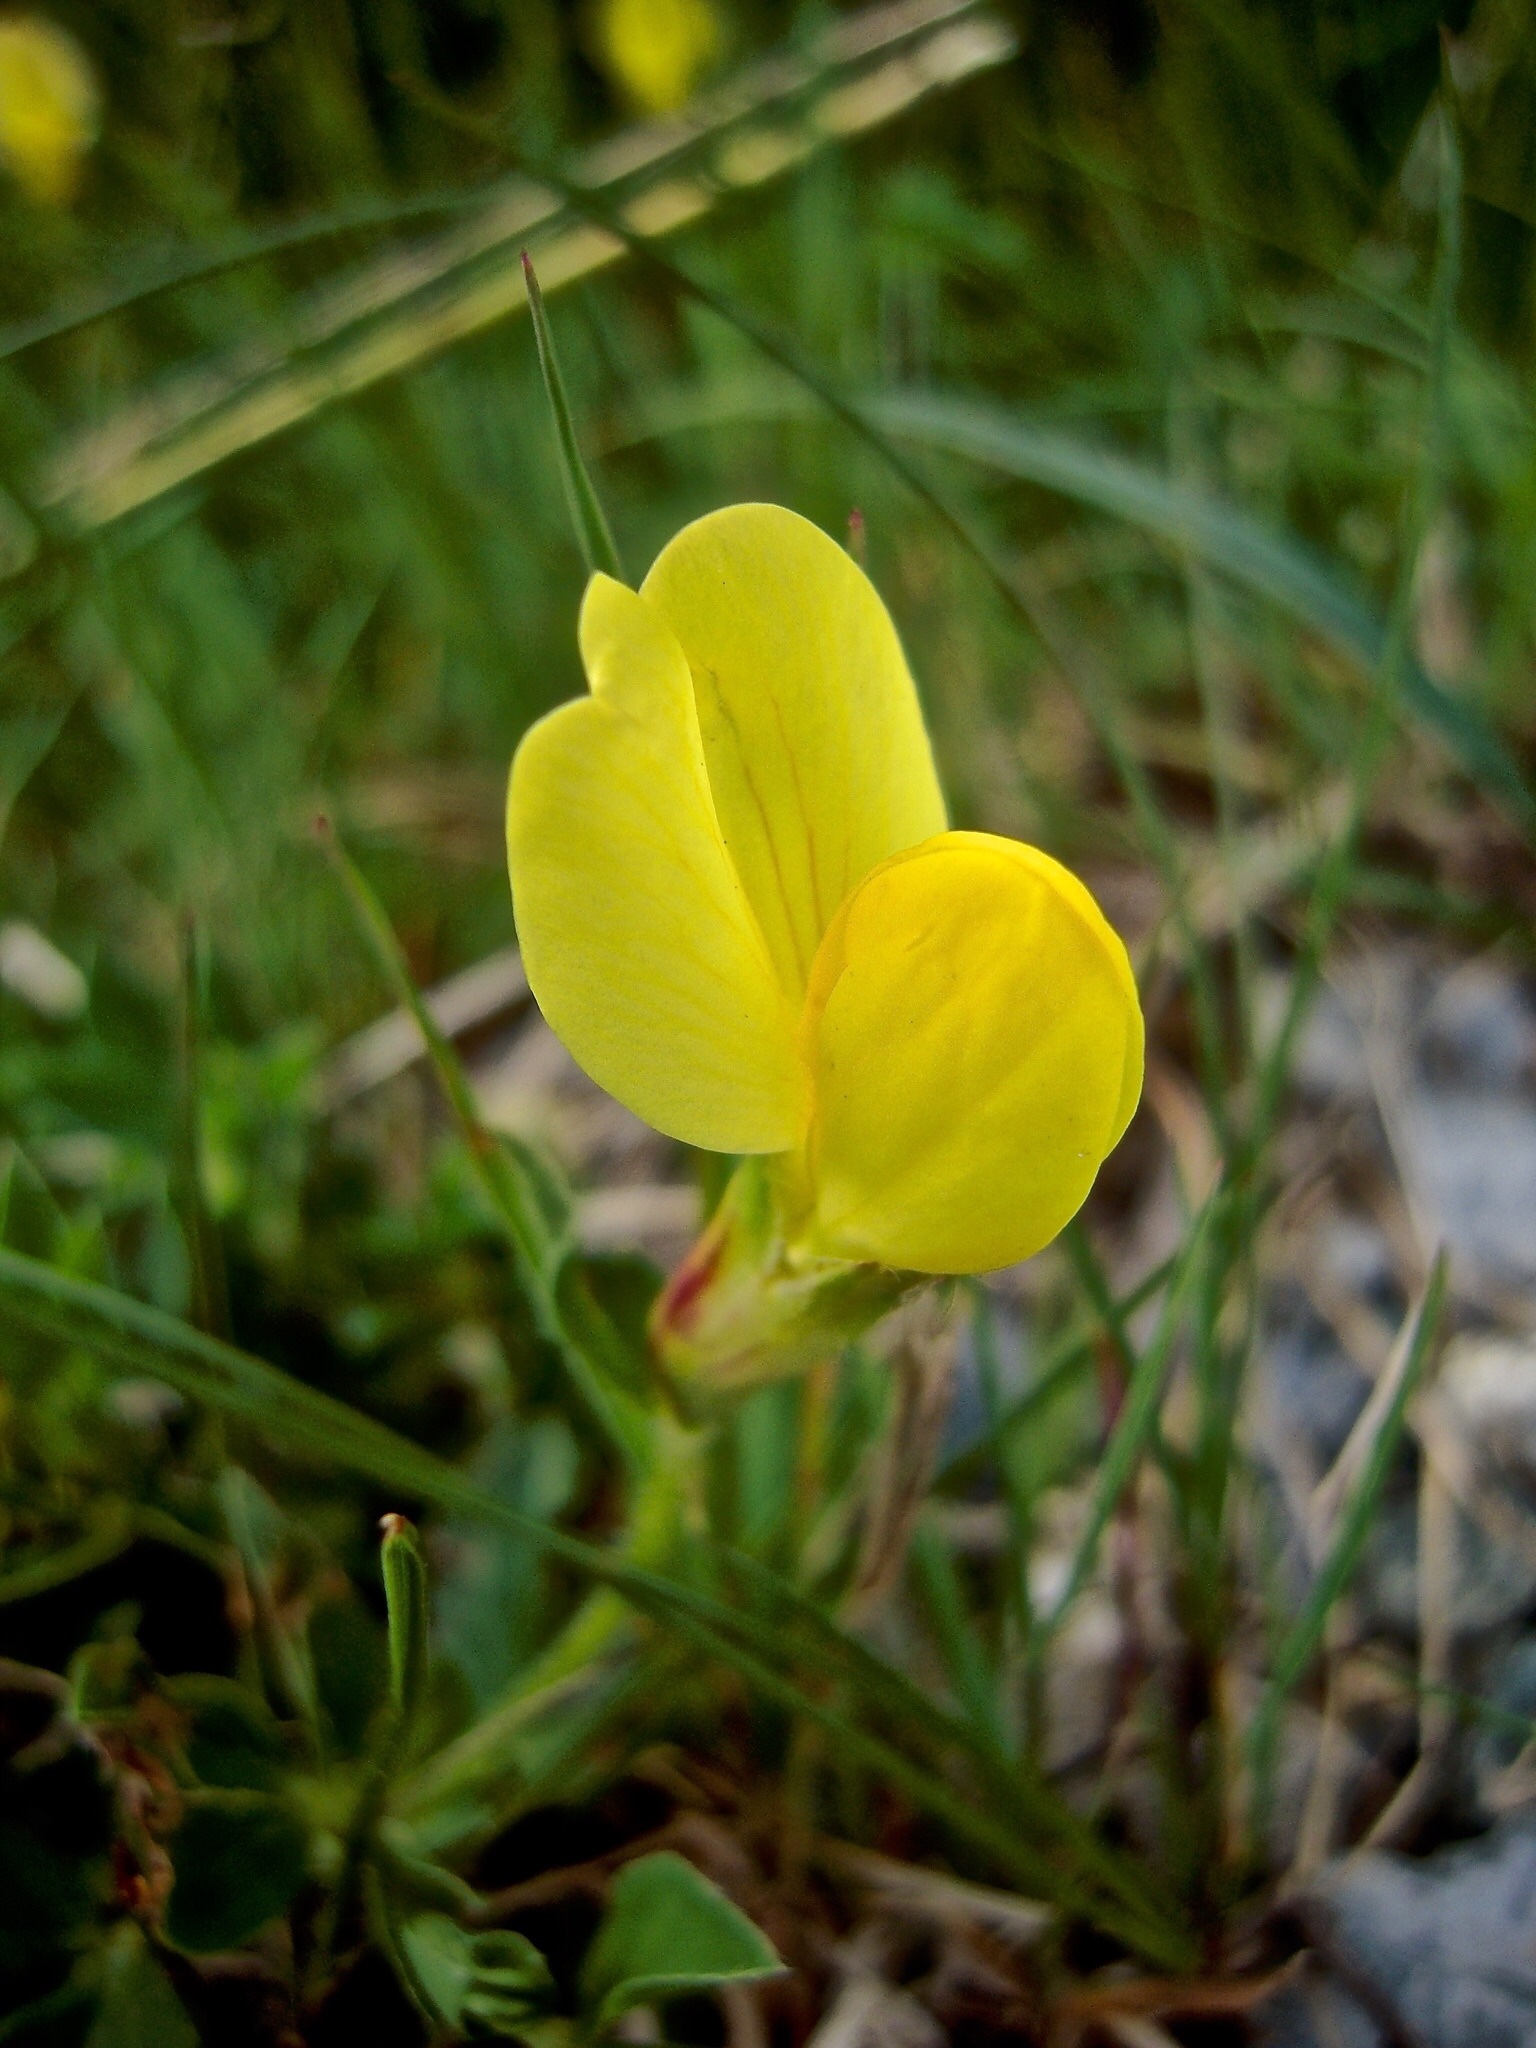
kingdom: Plantae
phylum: Tracheophyta
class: Magnoliopsida
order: Fabales
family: Fabaceae
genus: Lotus
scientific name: Lotus maritimus
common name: Dragon's-teeth
